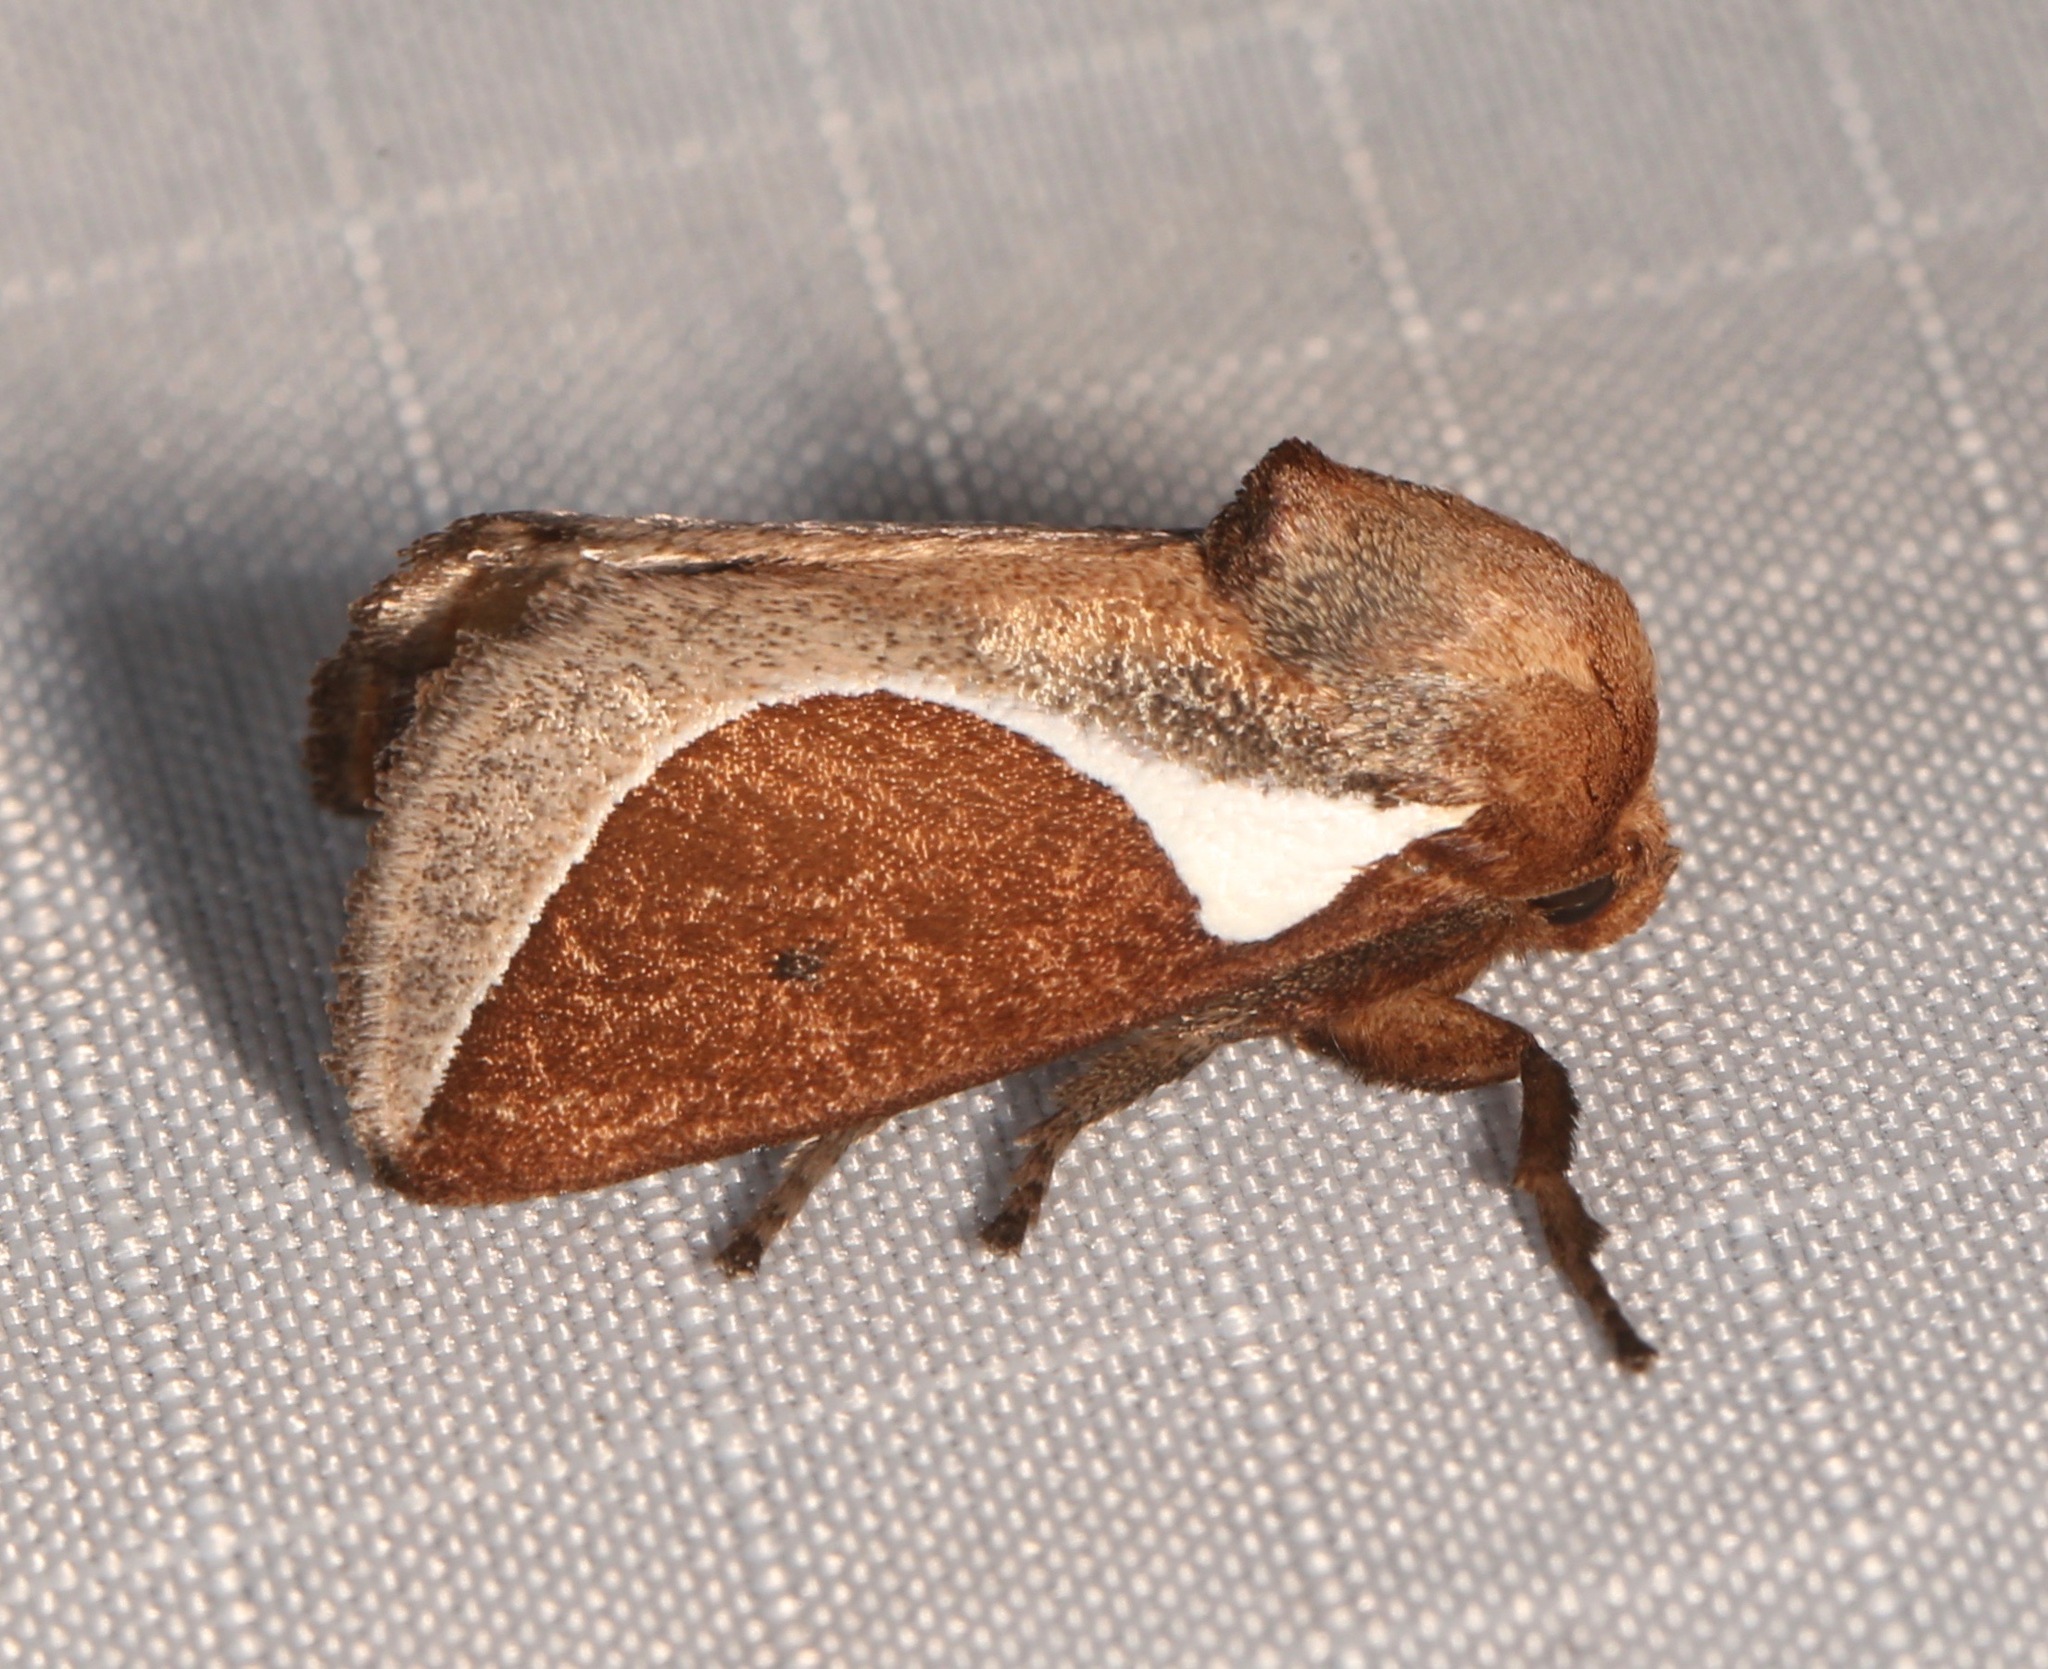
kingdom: Animalia
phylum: Arthropoda
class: Insecta
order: Lepidoptera
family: Limacodidae
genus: Prolimacodes
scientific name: Prolimacodes badia
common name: Skiff moth
